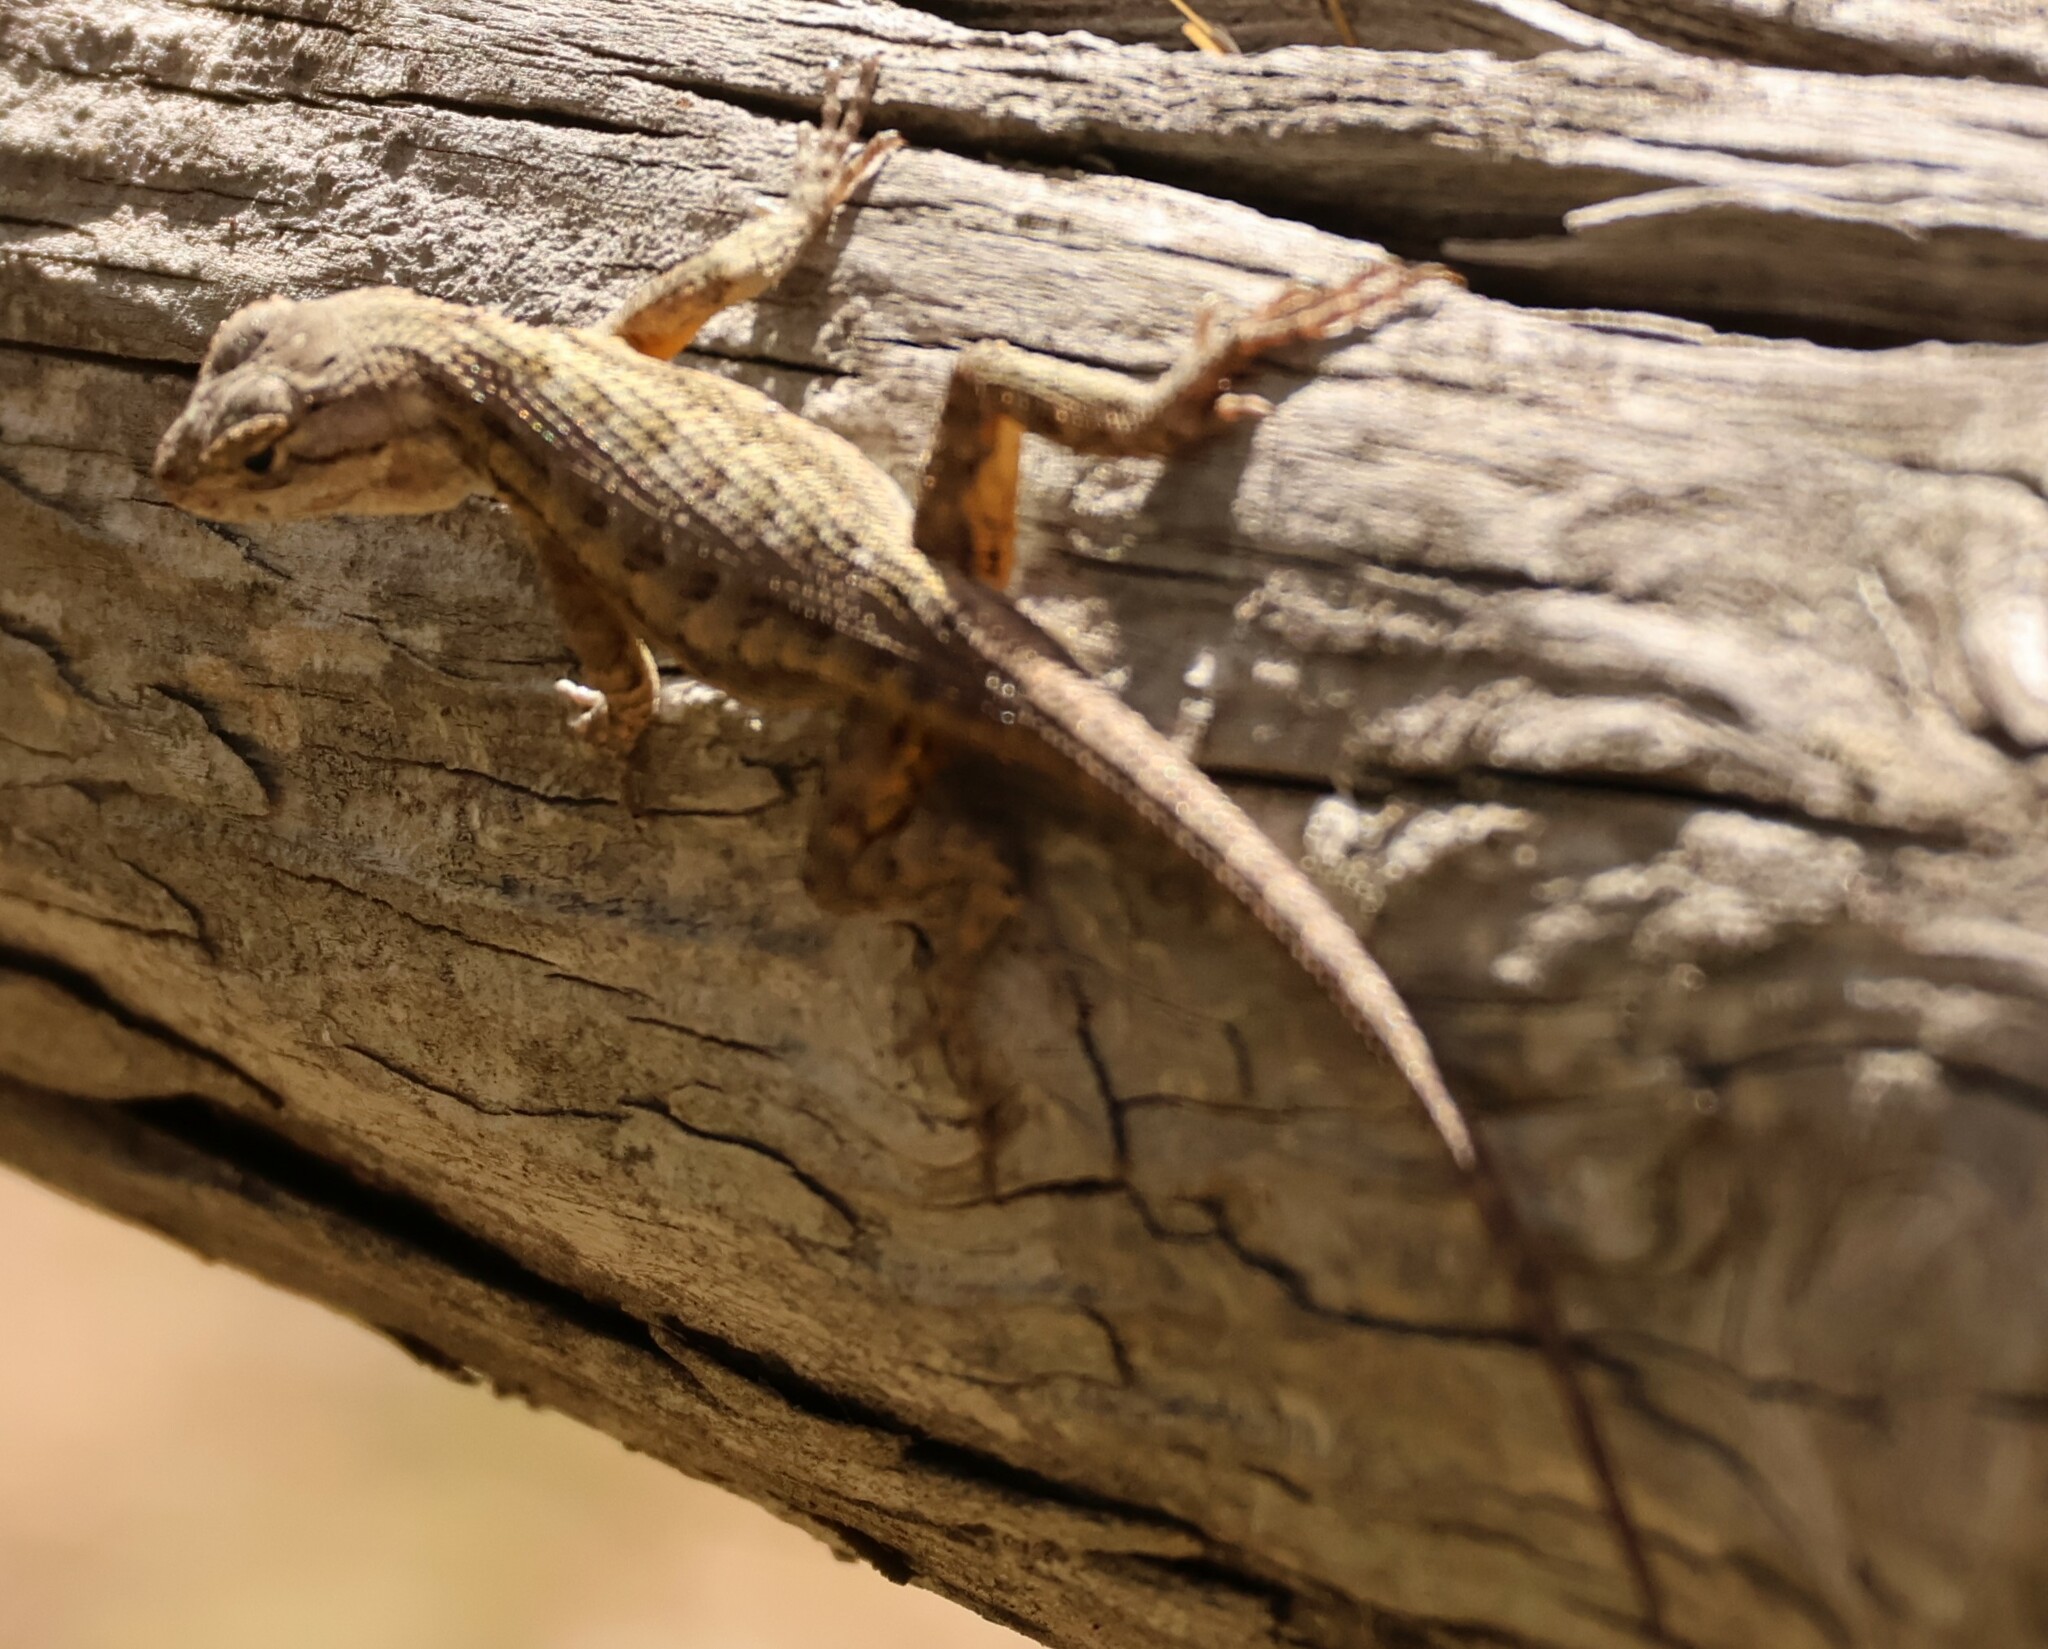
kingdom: Animalia
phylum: Chordata
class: Squamata
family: Phrynosomatidae
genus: Sceloporus
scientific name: Sceloporus occidentalis
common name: Western fence lizard
